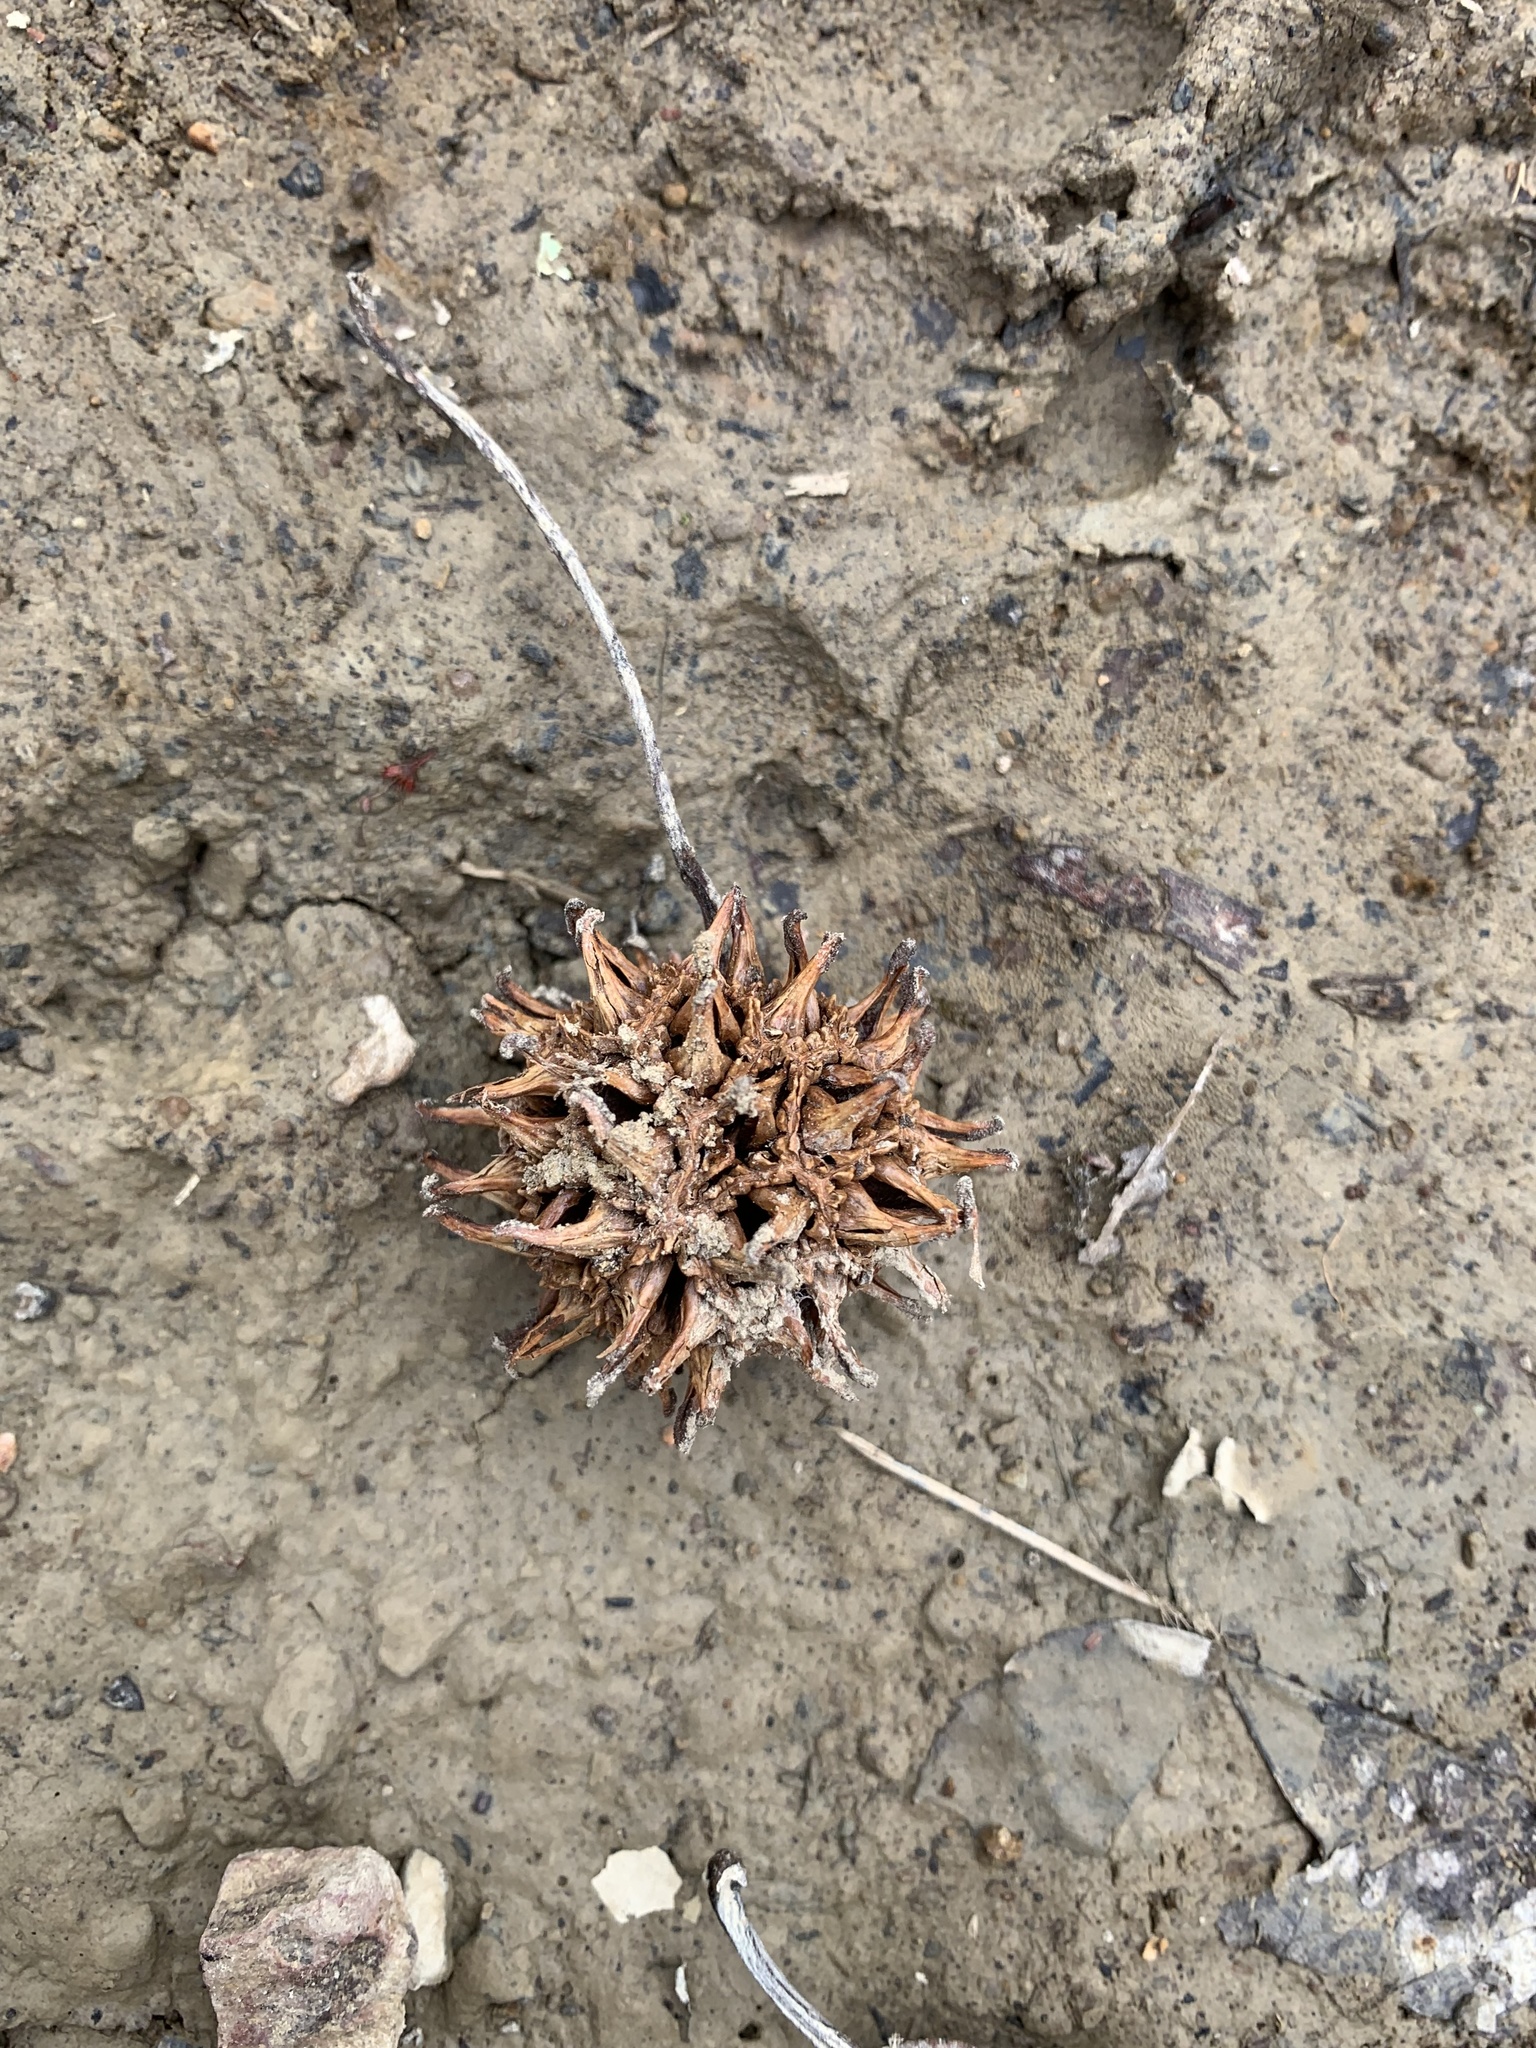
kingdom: Plantae
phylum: Tracheophyta
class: Magnoliopsida
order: Saxifragales
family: Altingiaceae
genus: Liquidambar
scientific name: Liquidambar styraciflua
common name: Sweet gum
